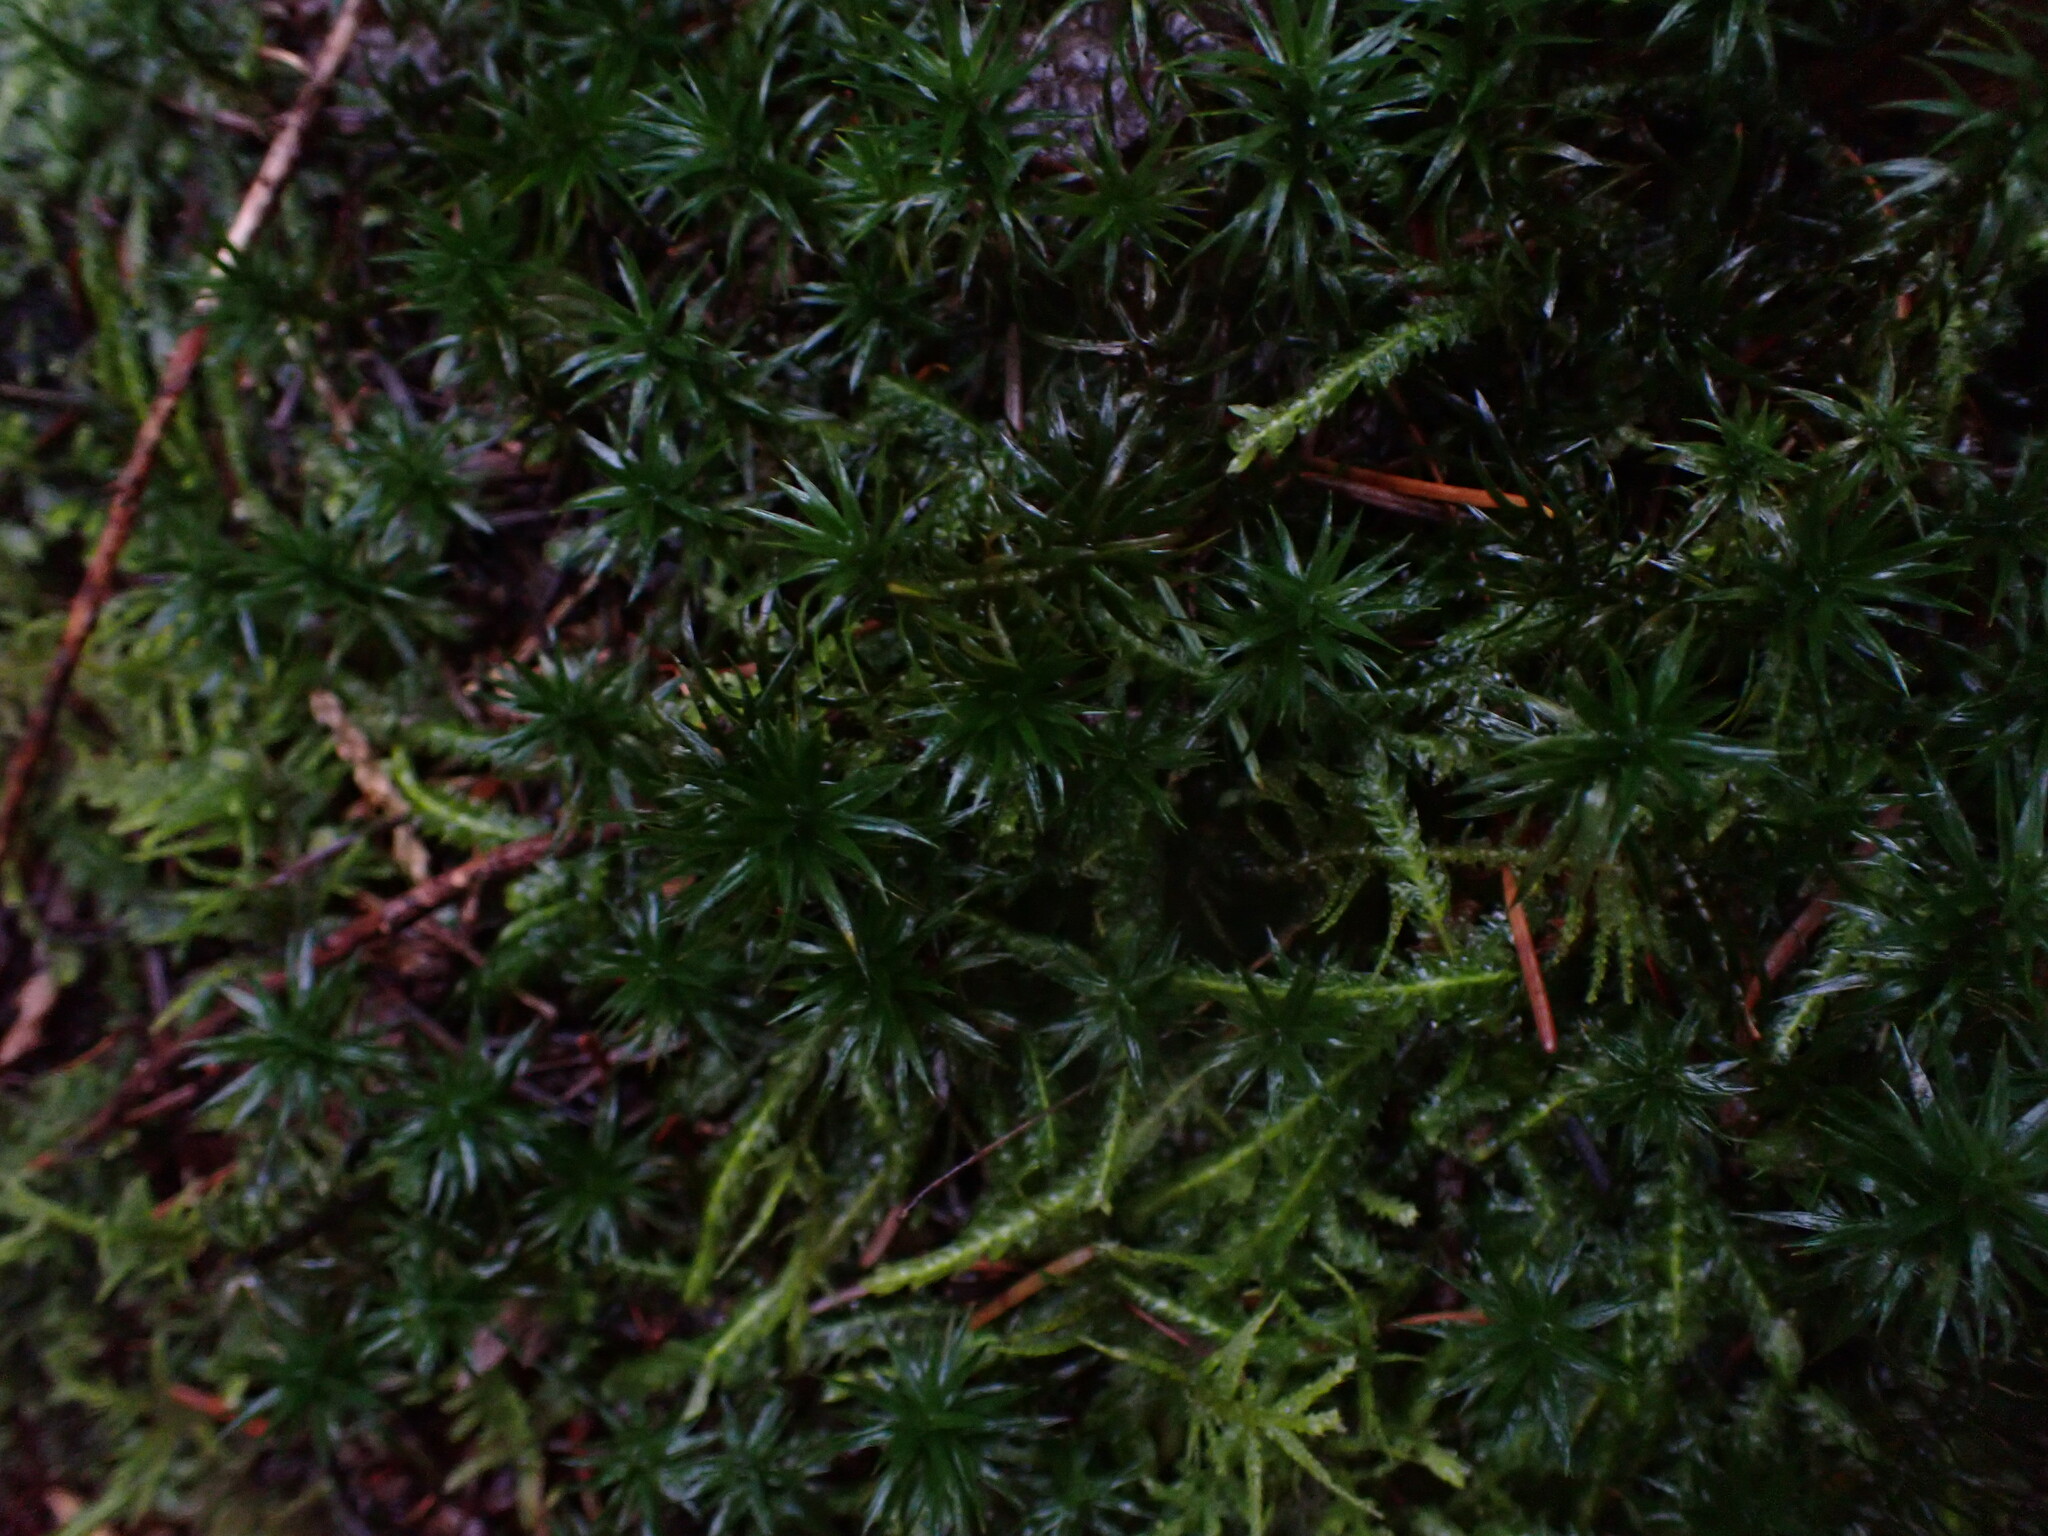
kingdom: Plantae
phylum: Bryophyta
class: Polytrichopsida
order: Polytrichales
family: Polytrichaceae
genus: Polytrichum
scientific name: Polytrichum formosum
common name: Bank haircap moss
